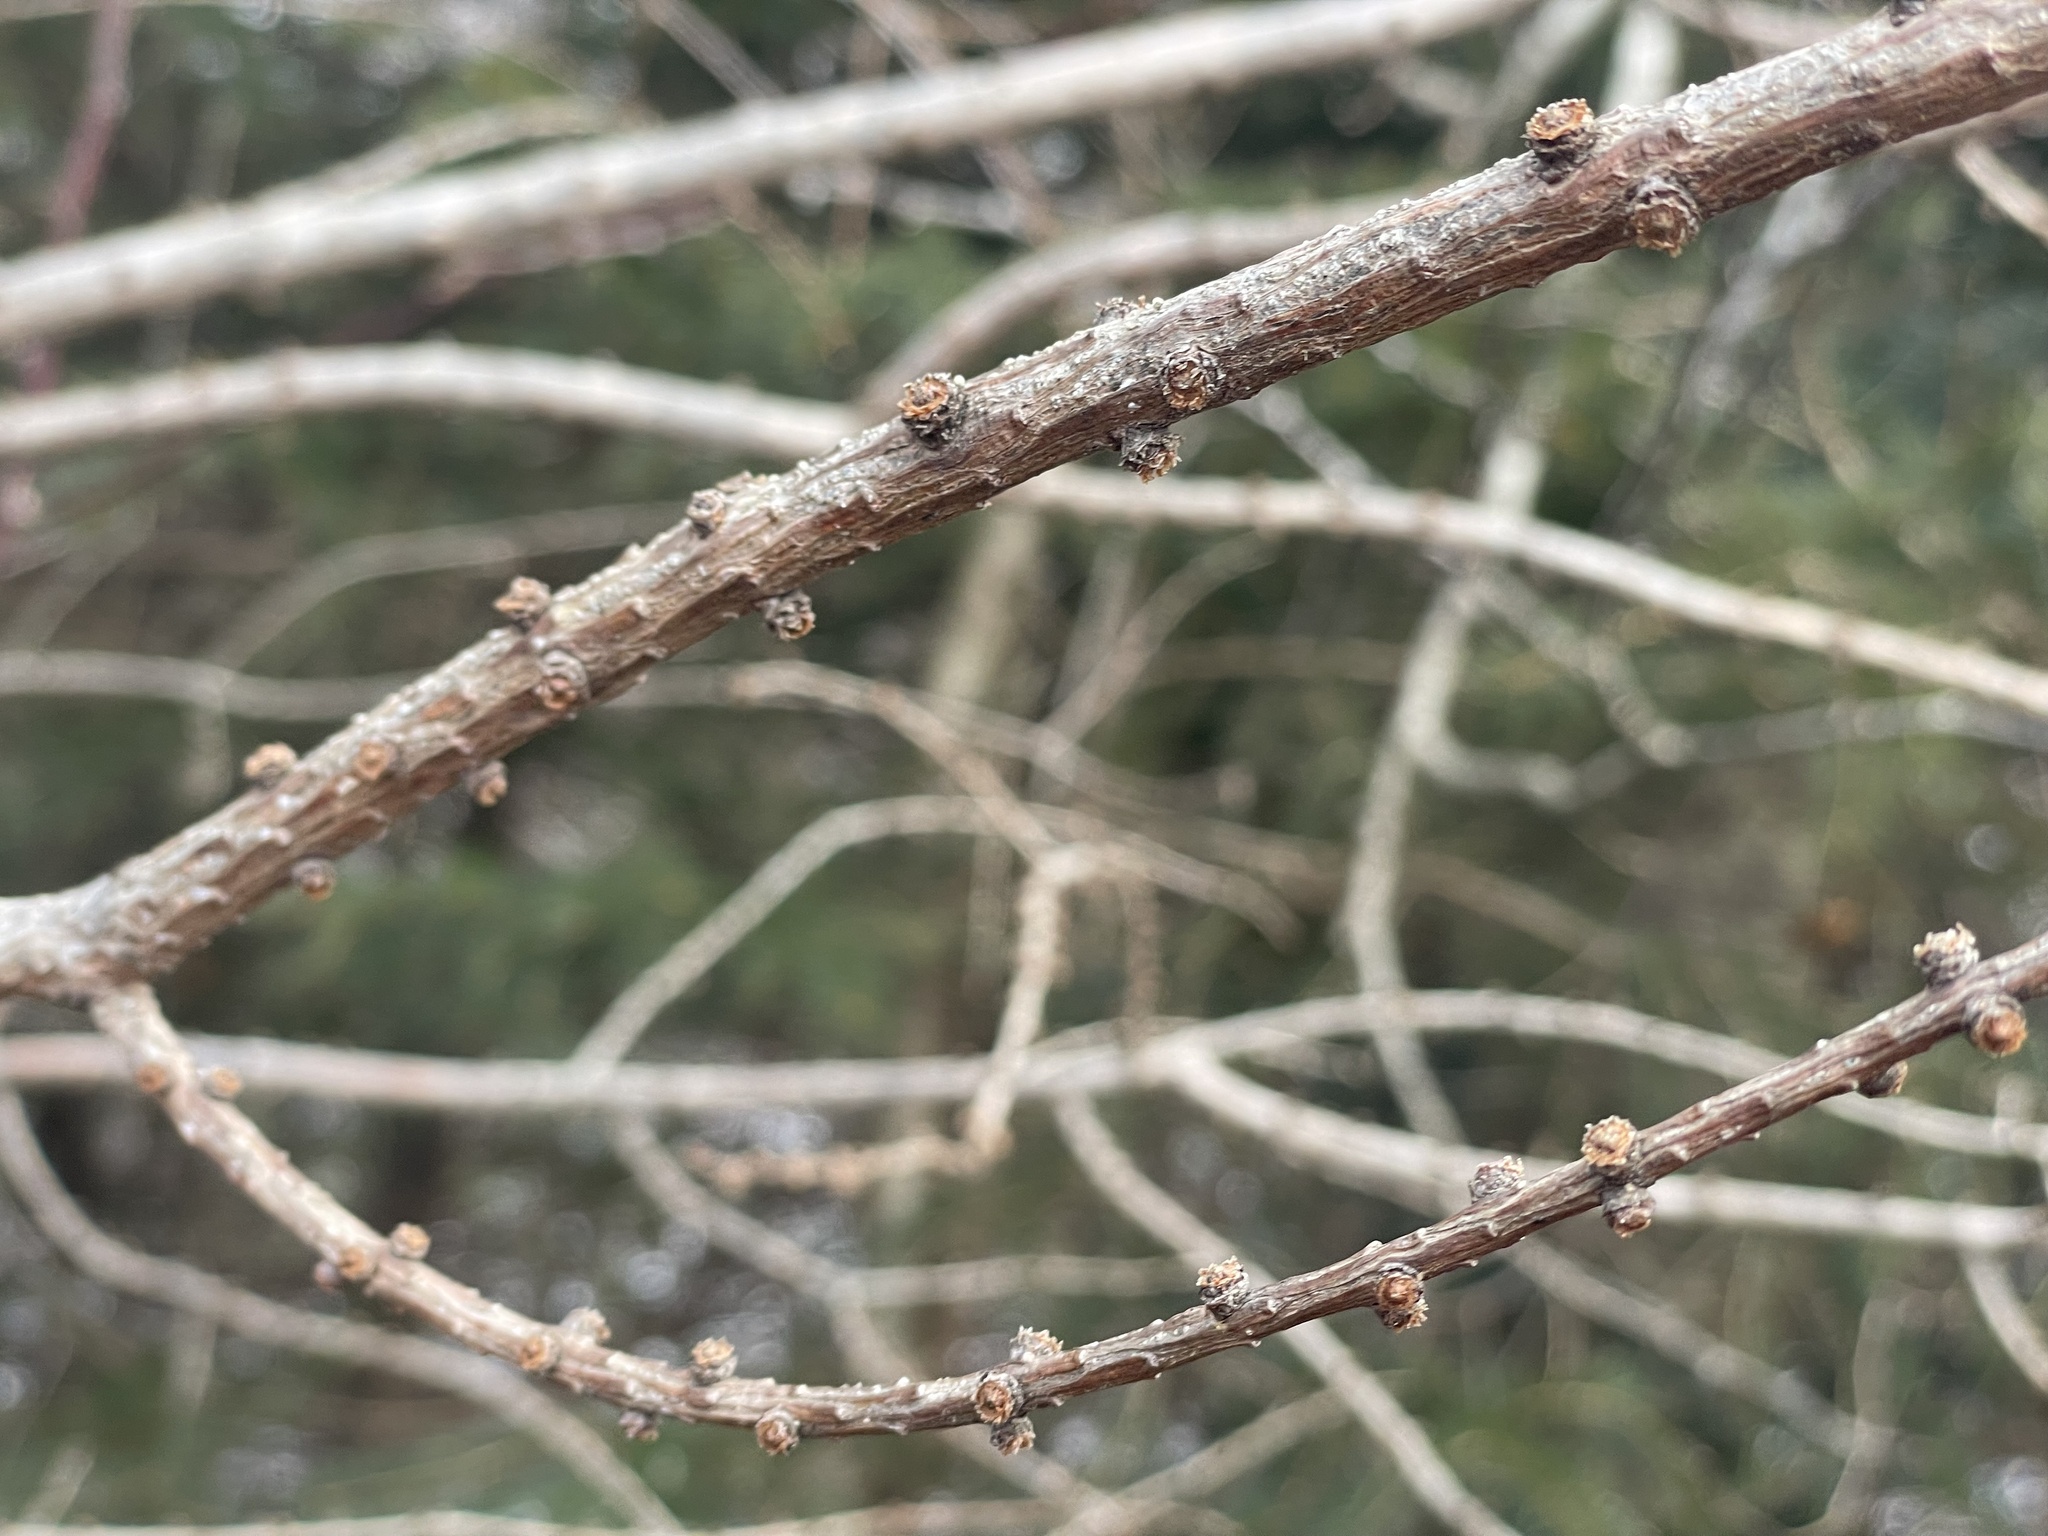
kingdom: Plantae
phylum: Tracheophyta
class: Pinopsida
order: Pinales
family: Pinaceae
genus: Larix
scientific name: Larix laricina
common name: American larch
